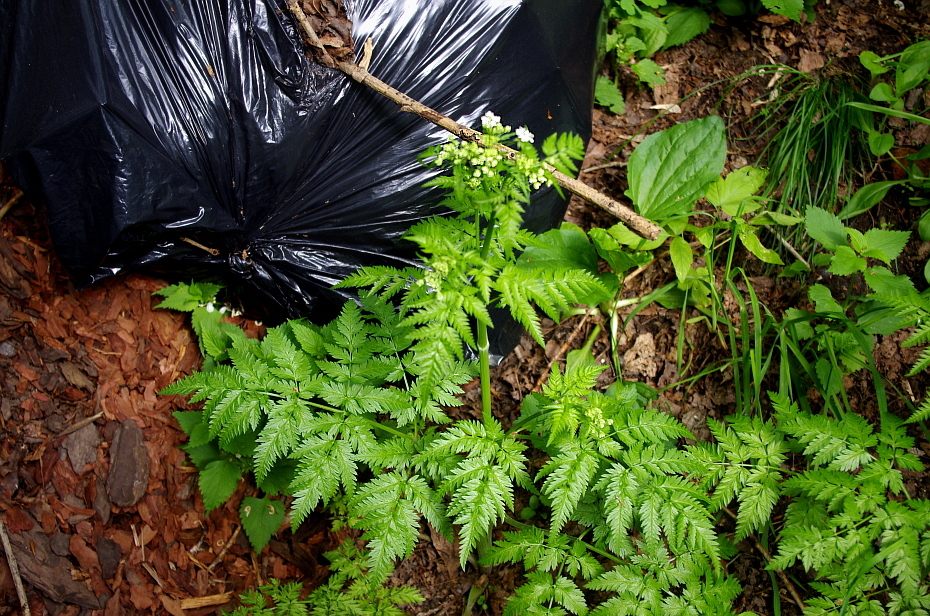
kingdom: Plantae
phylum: Tracheophyta
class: Magnoliopsida
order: Apiales
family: Apiaceae
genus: Anthriscus
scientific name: Anthriscus sylvestris
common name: Cow parsley
